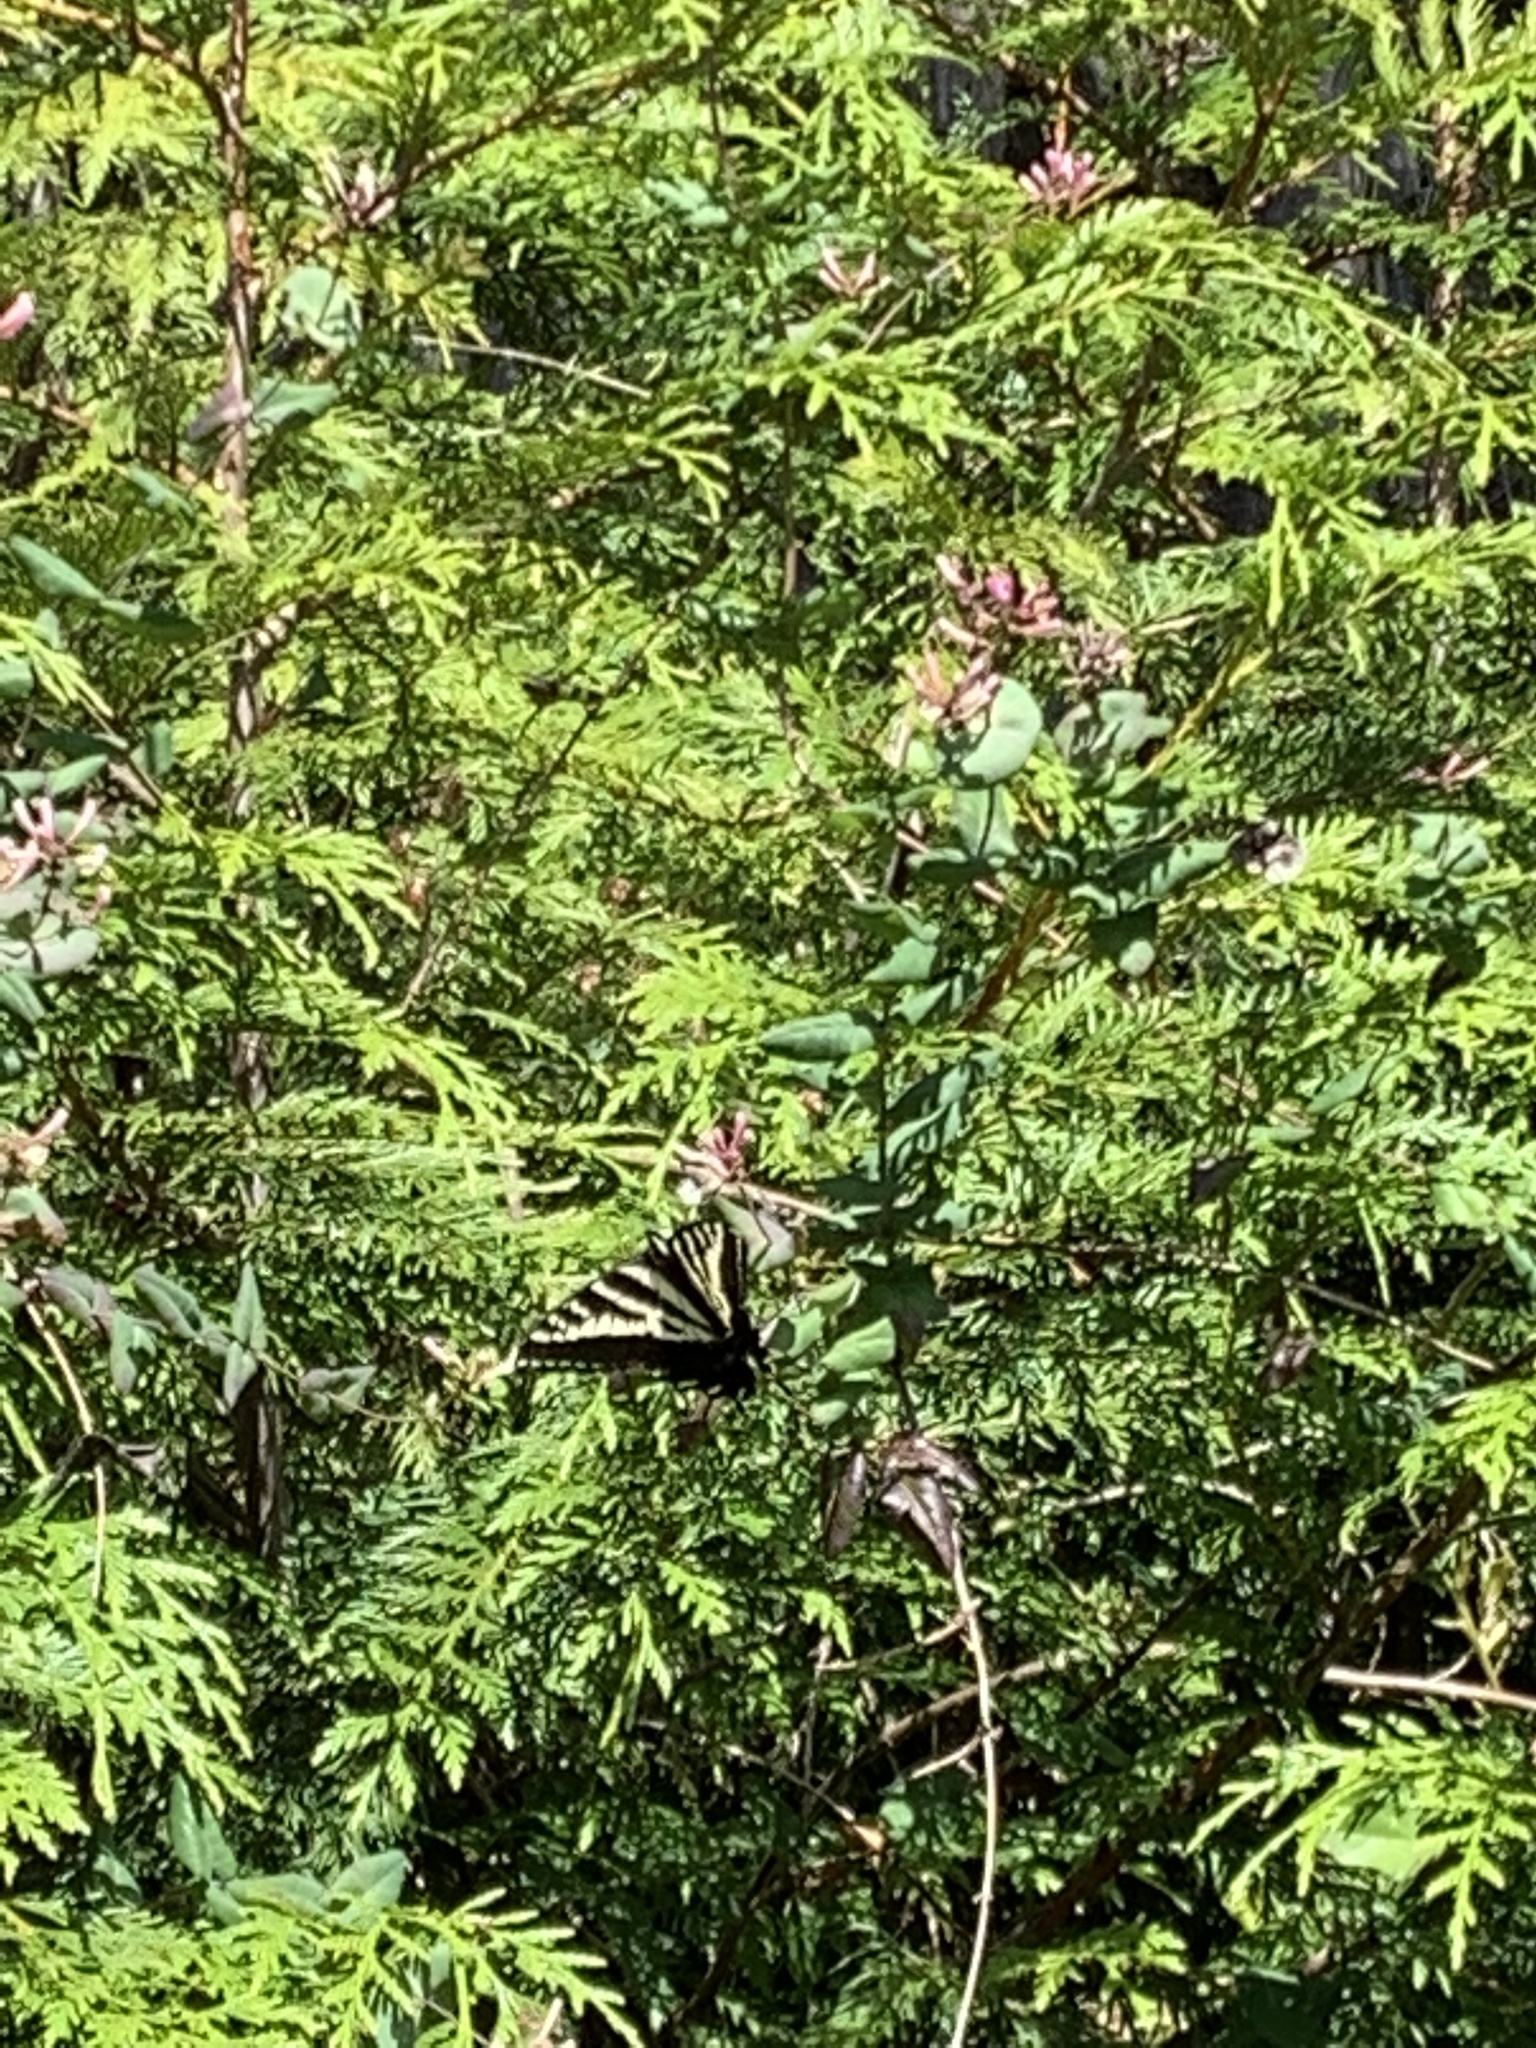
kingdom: Animalia
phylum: Arthropoda
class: Insecta
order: Lepidoptera
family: Papilionidae
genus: Papilio
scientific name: Papilio eurymedon
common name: Pale tiger swallowtail
